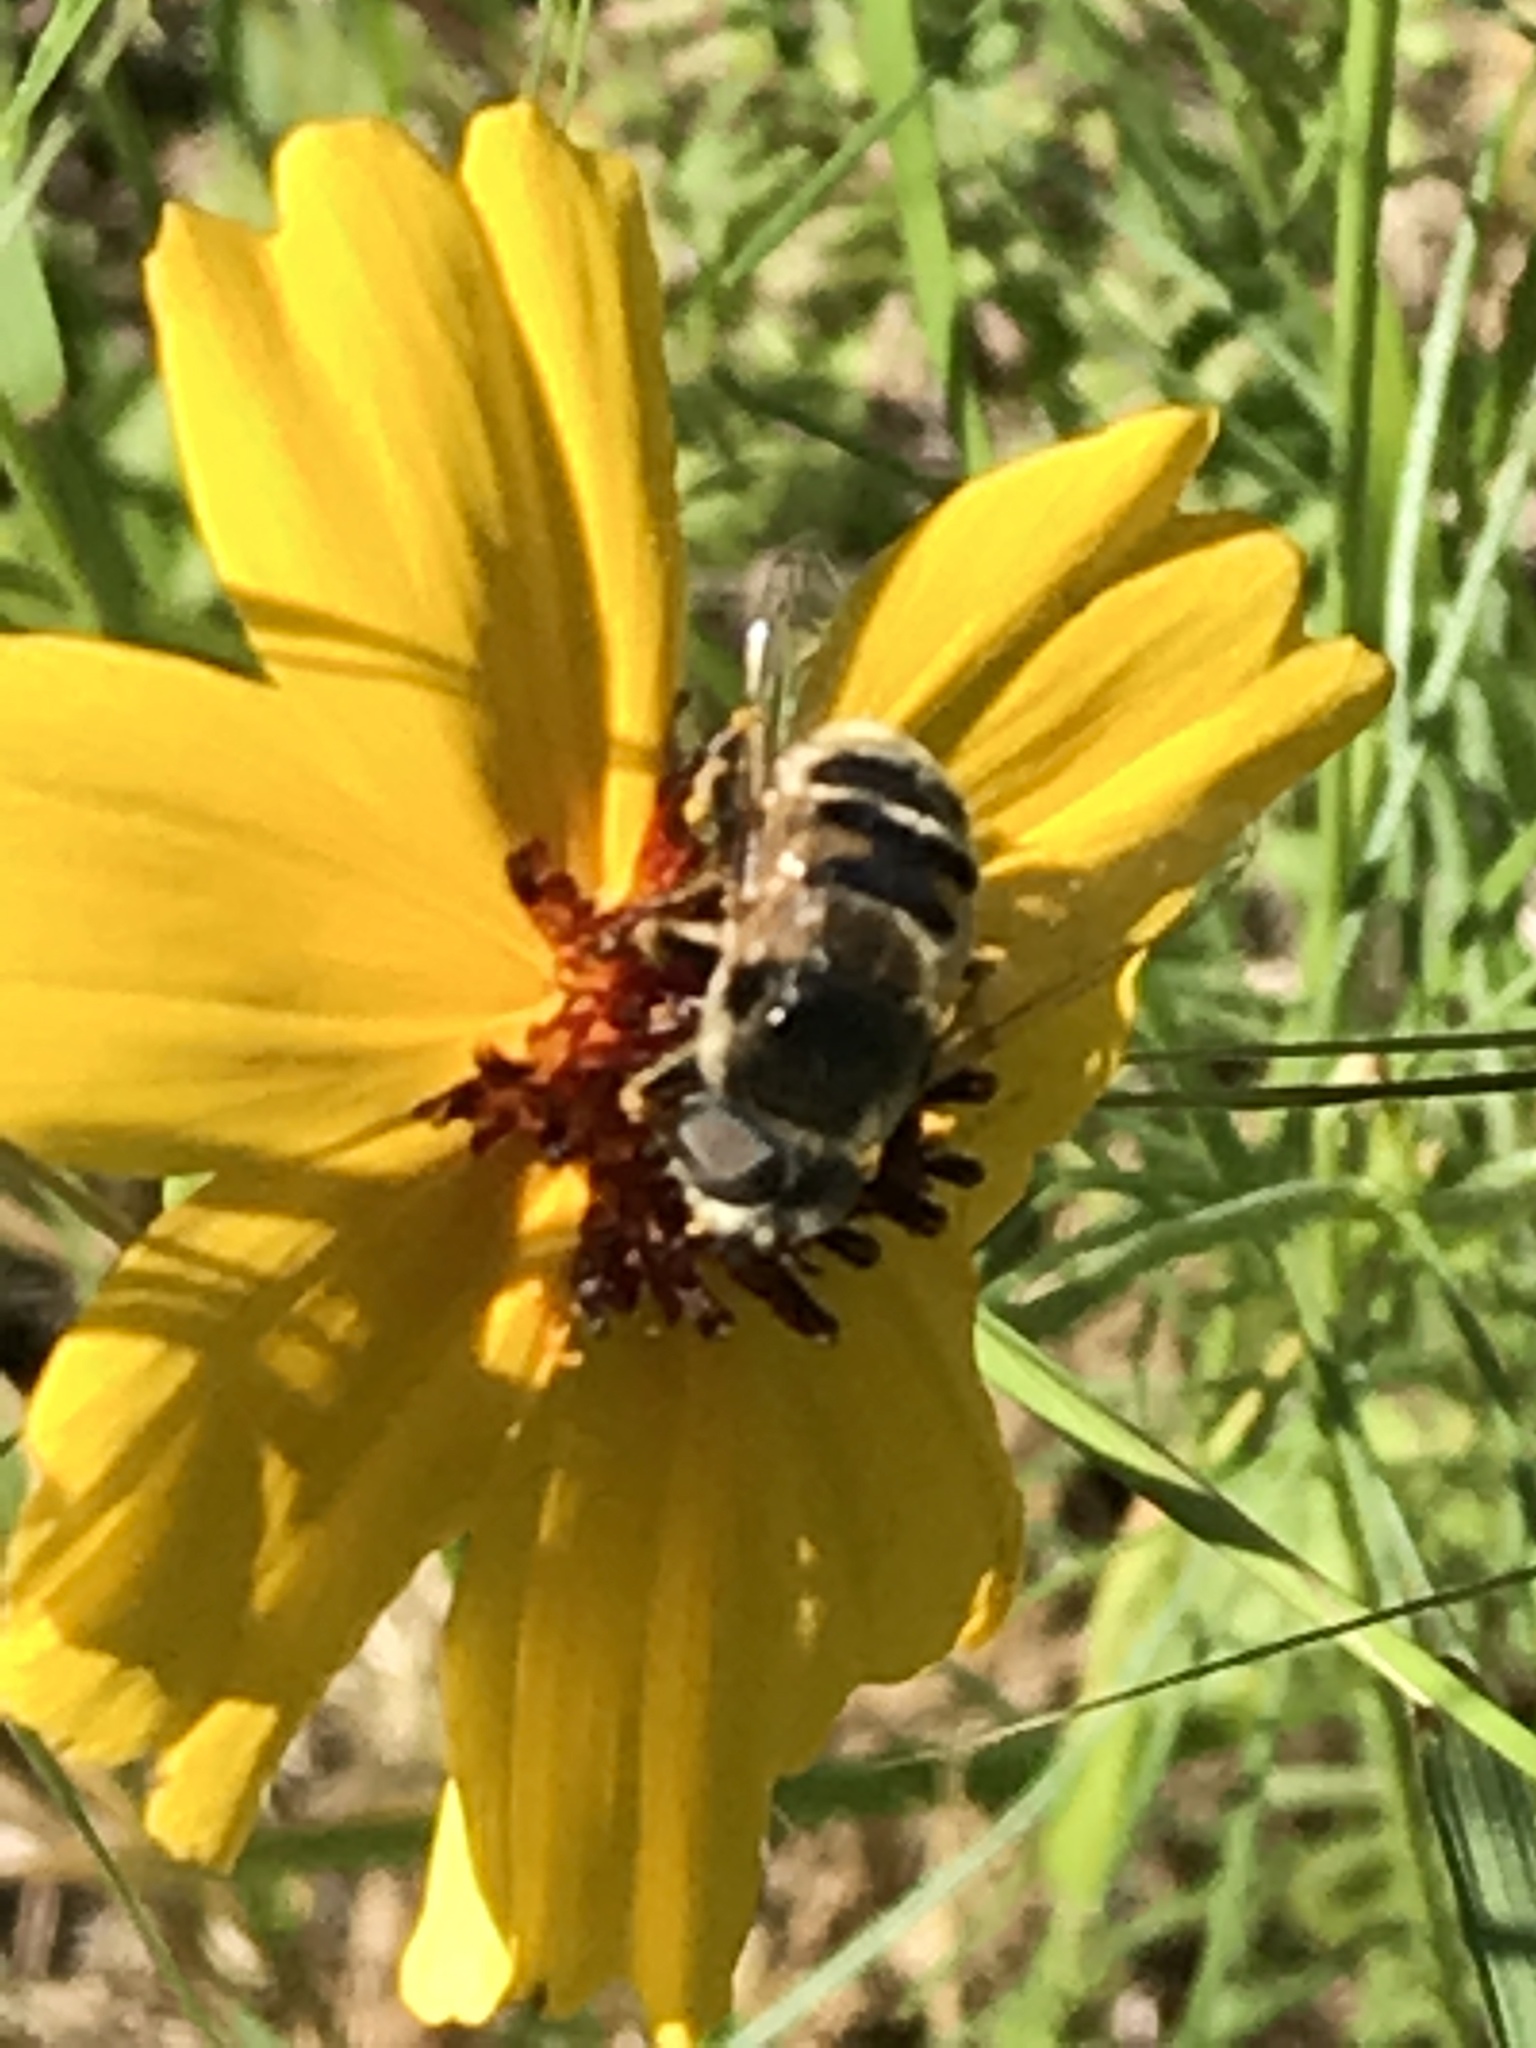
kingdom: Animalia
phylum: Arthropoda
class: Insecta
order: Diptera
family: Syrphidae
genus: Eristalis
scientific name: Eristalis stipator
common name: Yellow-shouldered drone fly
